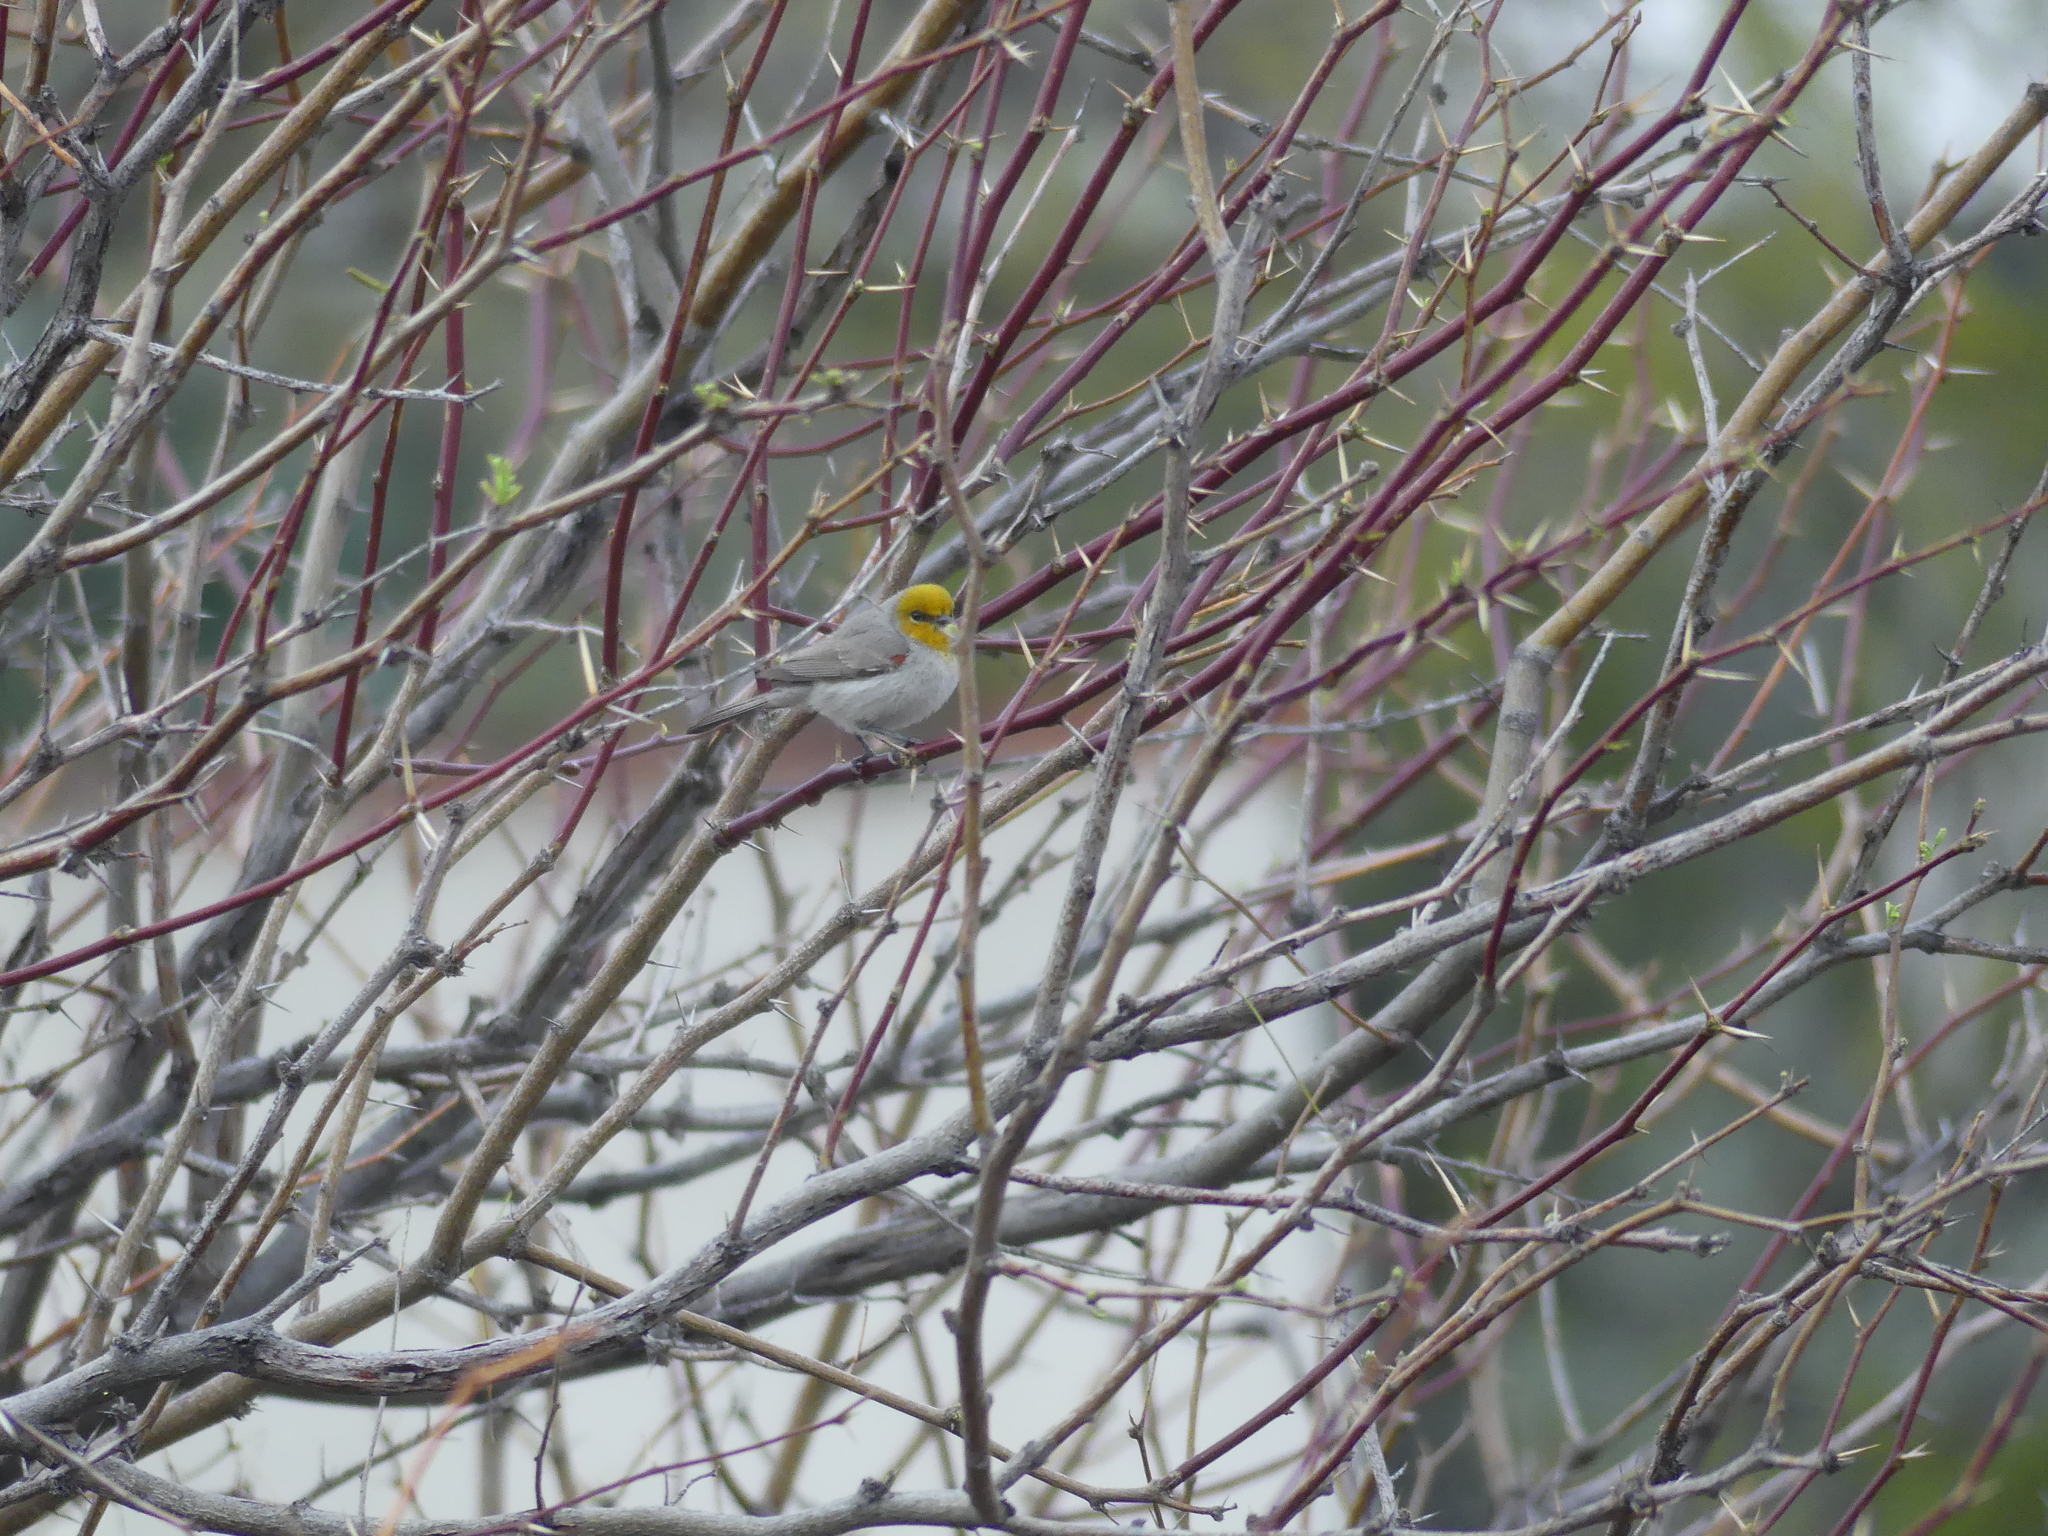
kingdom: Animalia
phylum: Chordata
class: Aves
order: Passeriformes
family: Remizidae
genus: Auriparus
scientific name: Auriparus flaviceps
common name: Verdin
